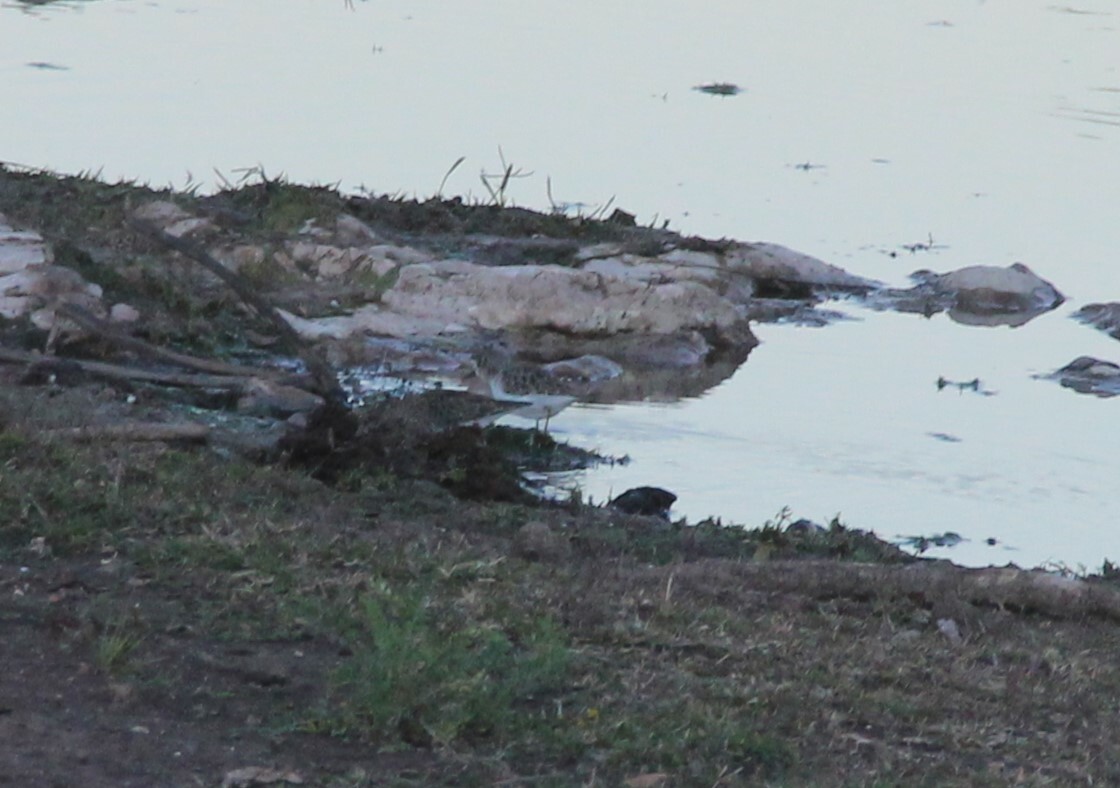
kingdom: Animalia
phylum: Chordata
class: Aves
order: Charadriiformes
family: Scolopacidae
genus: Calidris
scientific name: Calidris minutilla
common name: Least sandpiper
